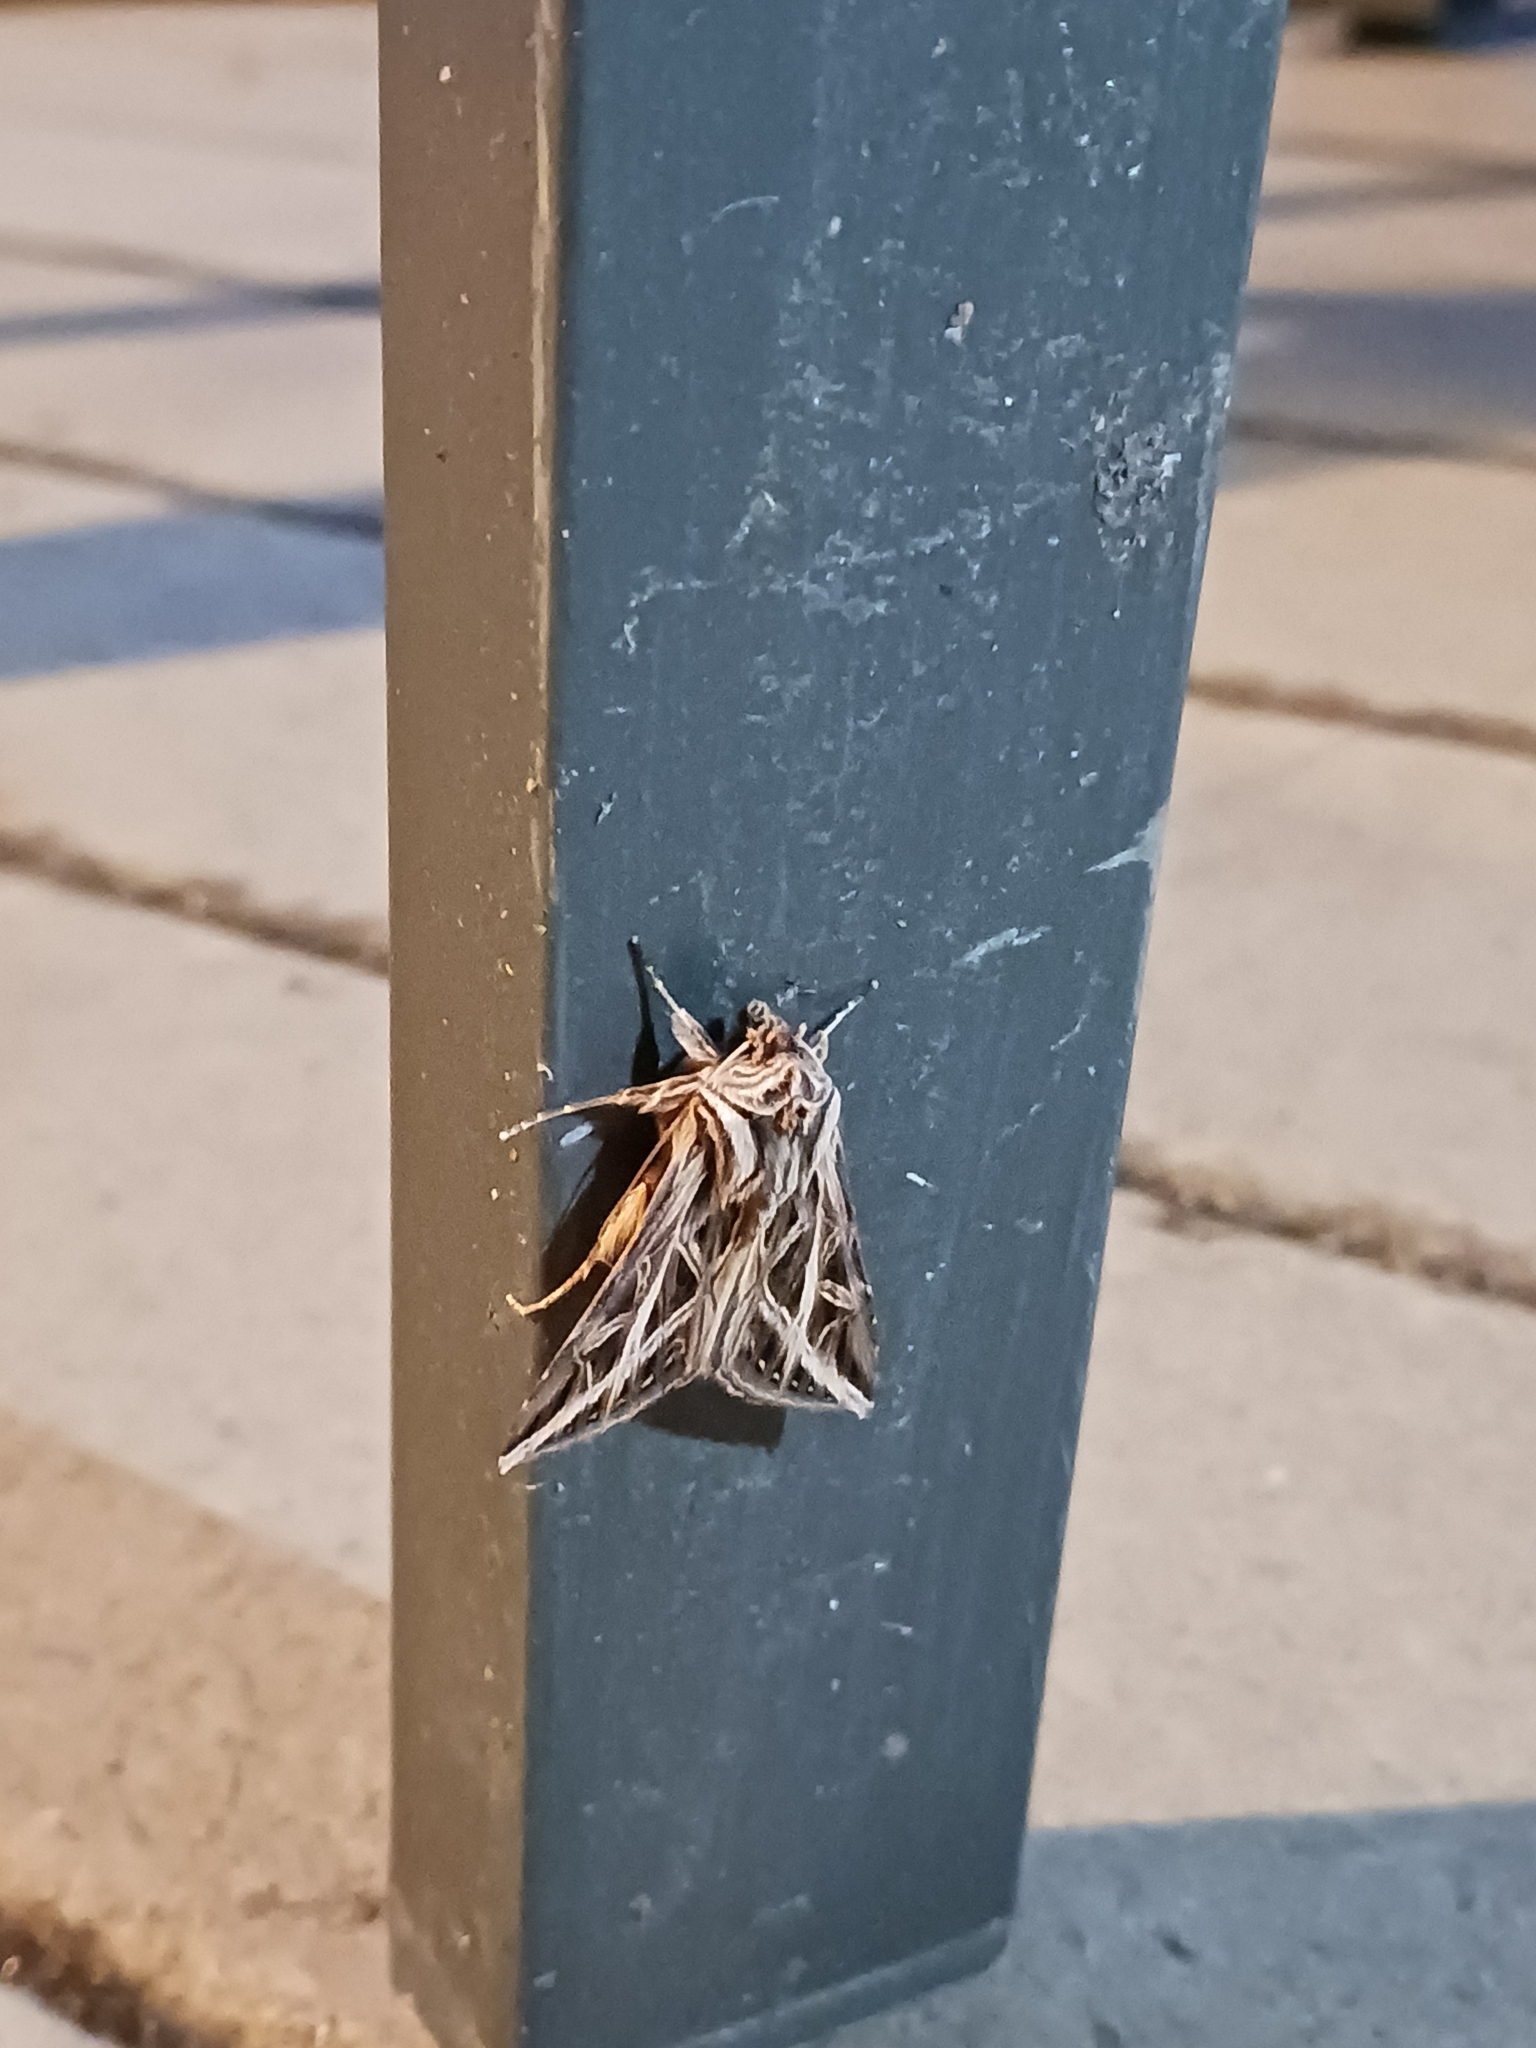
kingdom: Animalia
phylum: Arthropoda
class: Insecta
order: Lepidoptera
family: Noctuidae
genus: Dargida
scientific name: Dargida procinctus
